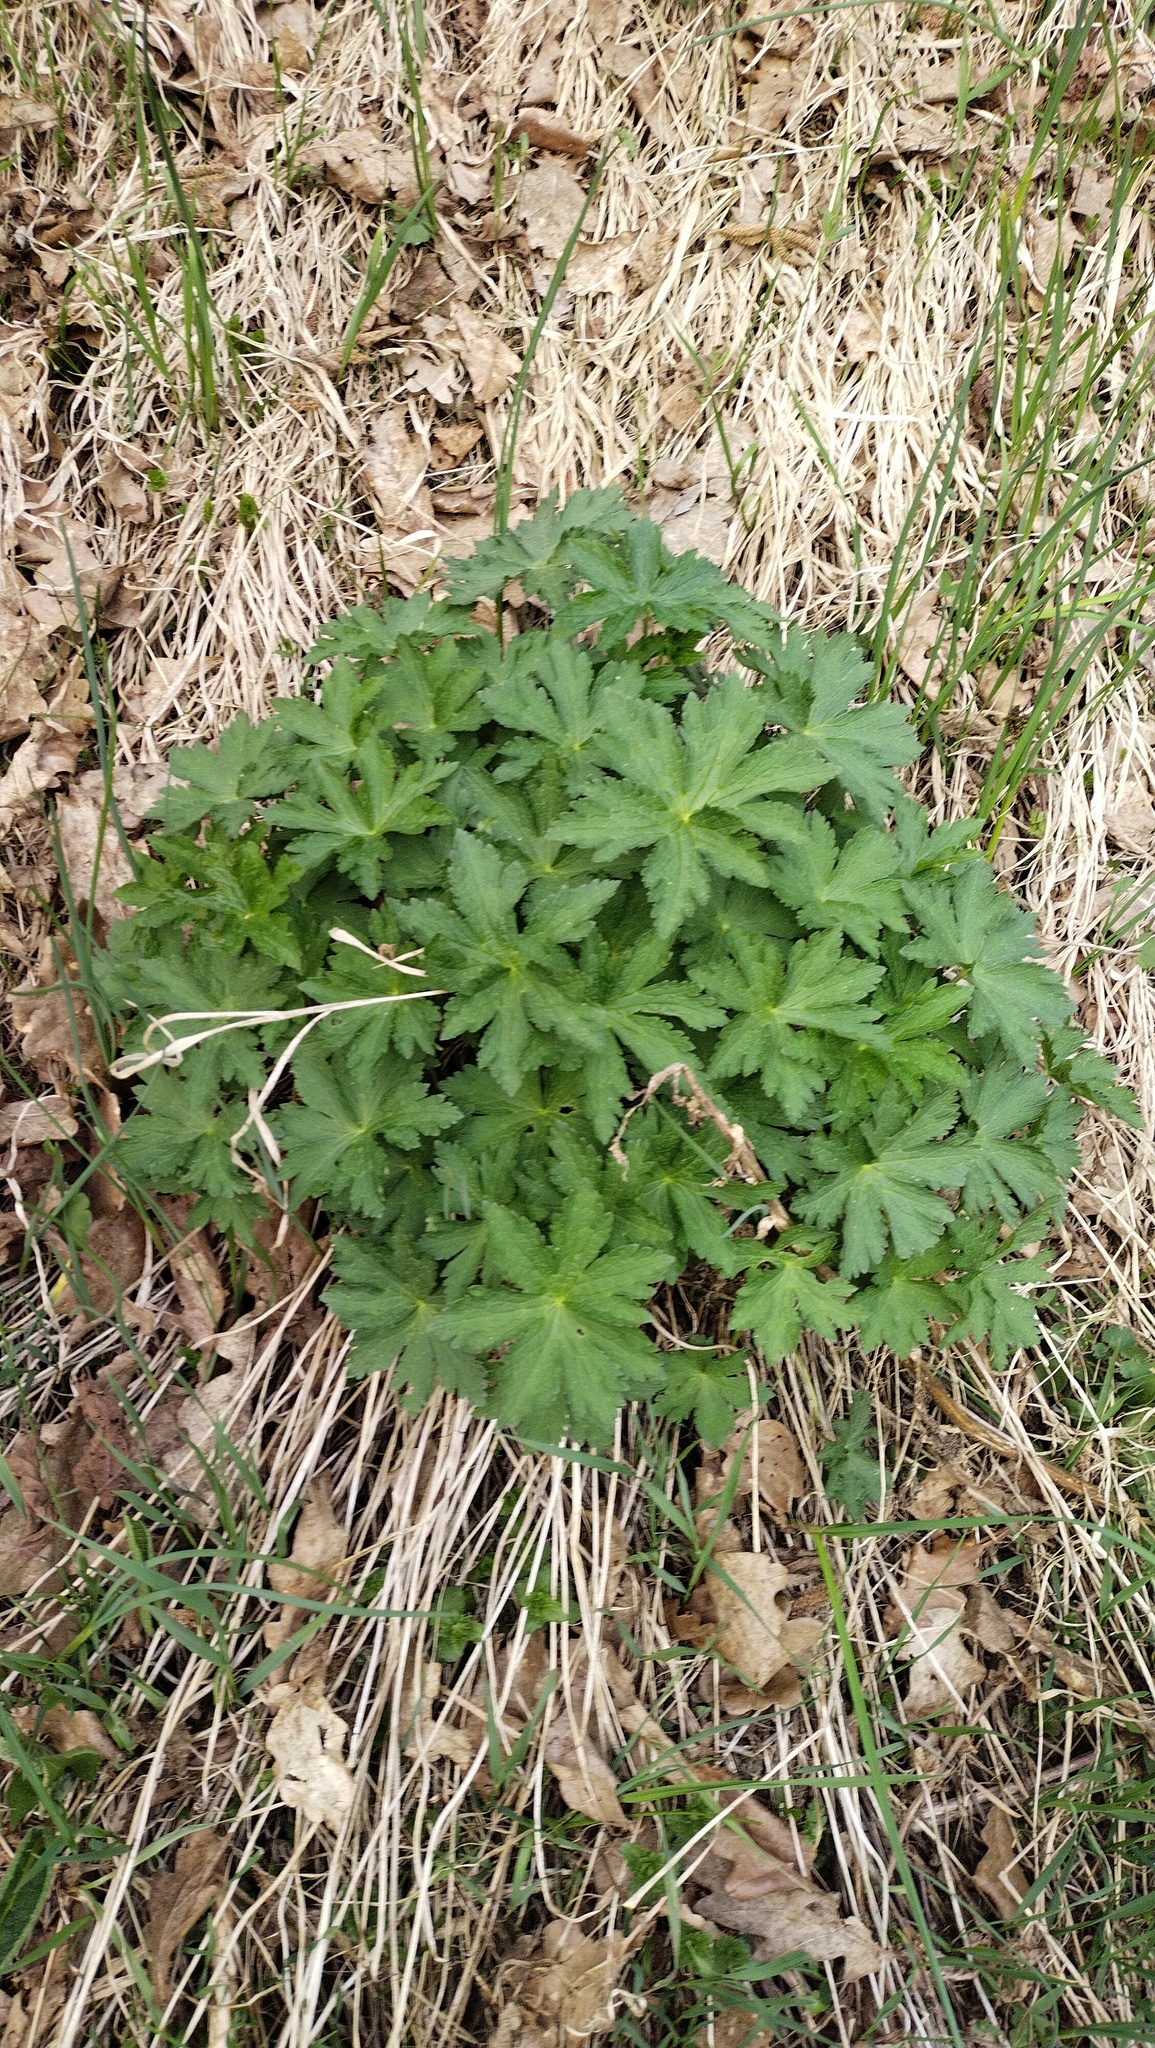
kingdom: Plantae
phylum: Tracheophyta
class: Magnoliopsida
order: Geraniales
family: Geraniaceae
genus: Geranium
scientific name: Geranium sylvaticum
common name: Wood crane's-bill
